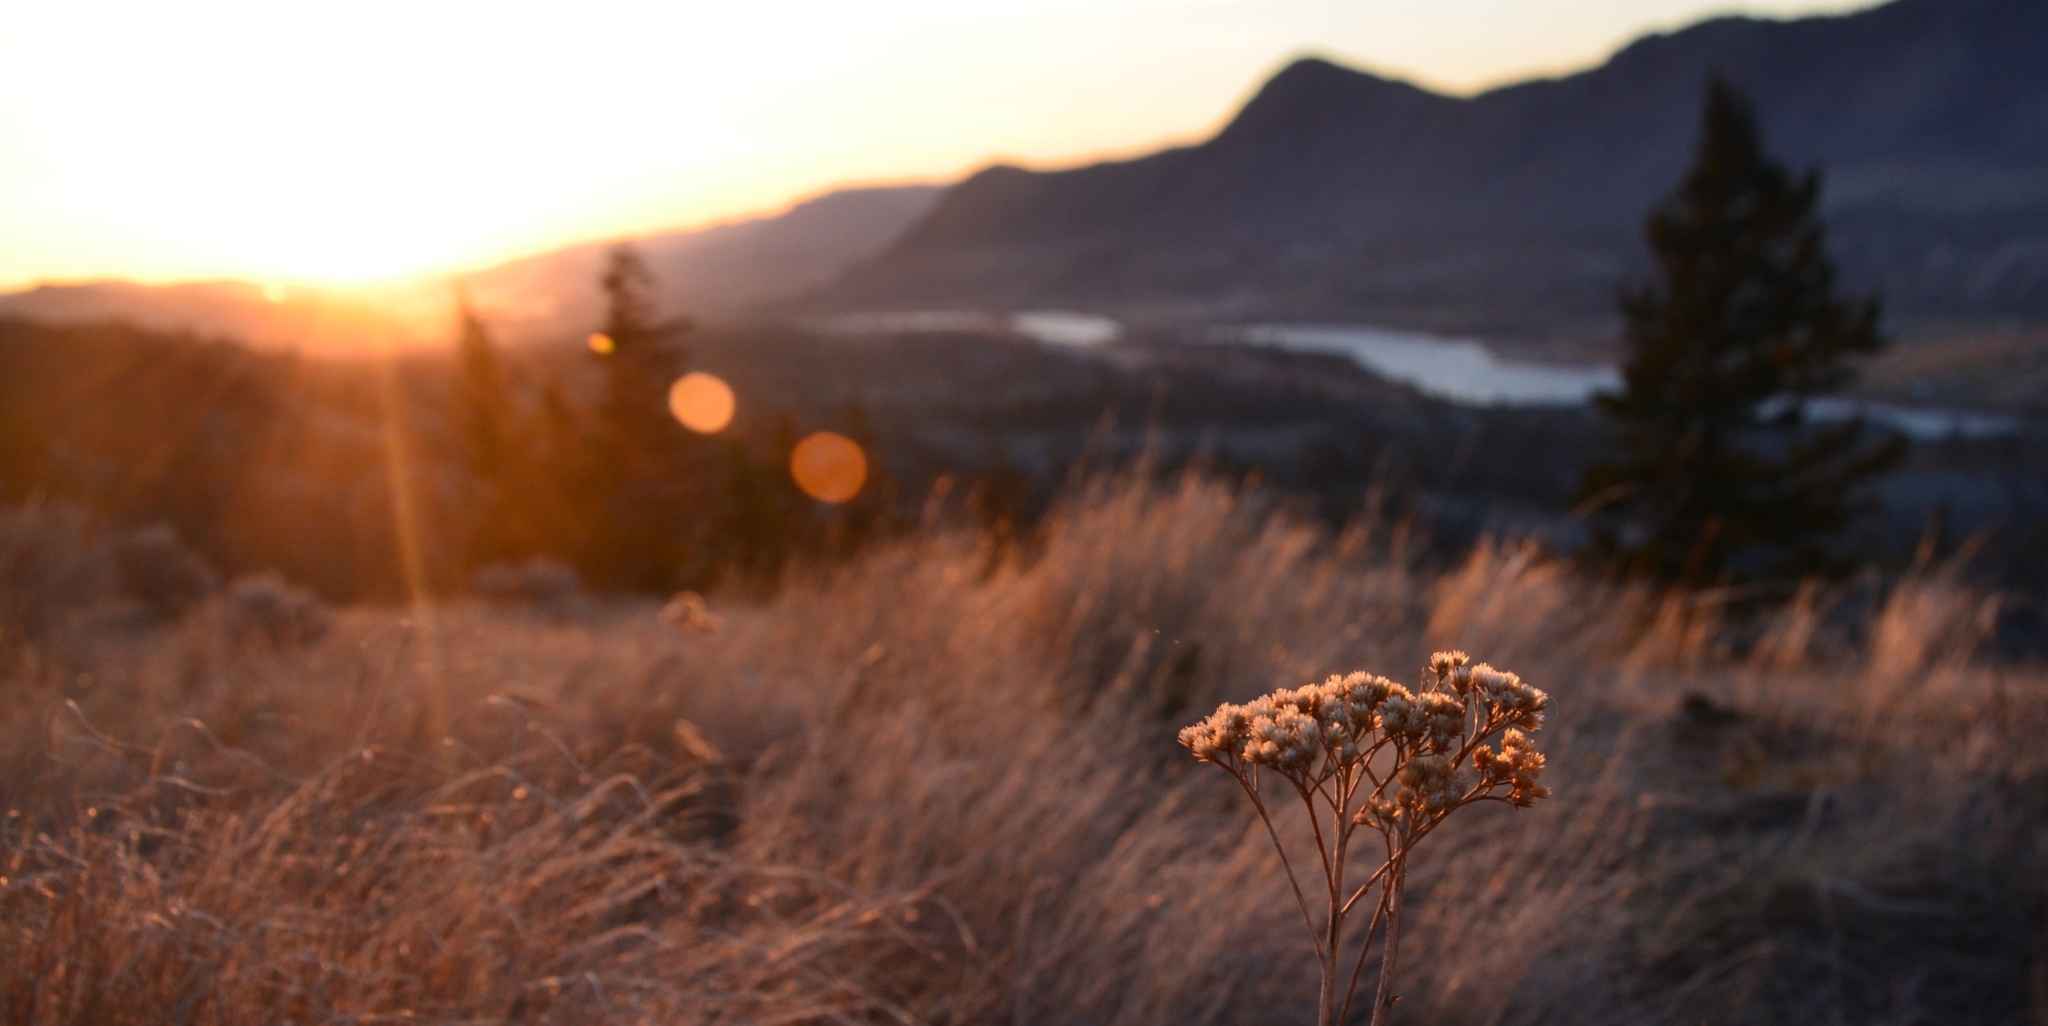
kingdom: Plantae
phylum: Tracheophyta
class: Magnoliopsida
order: Asterales
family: Asteraceae
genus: Achillea
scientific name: Achillea millefolium
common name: Yarrow
